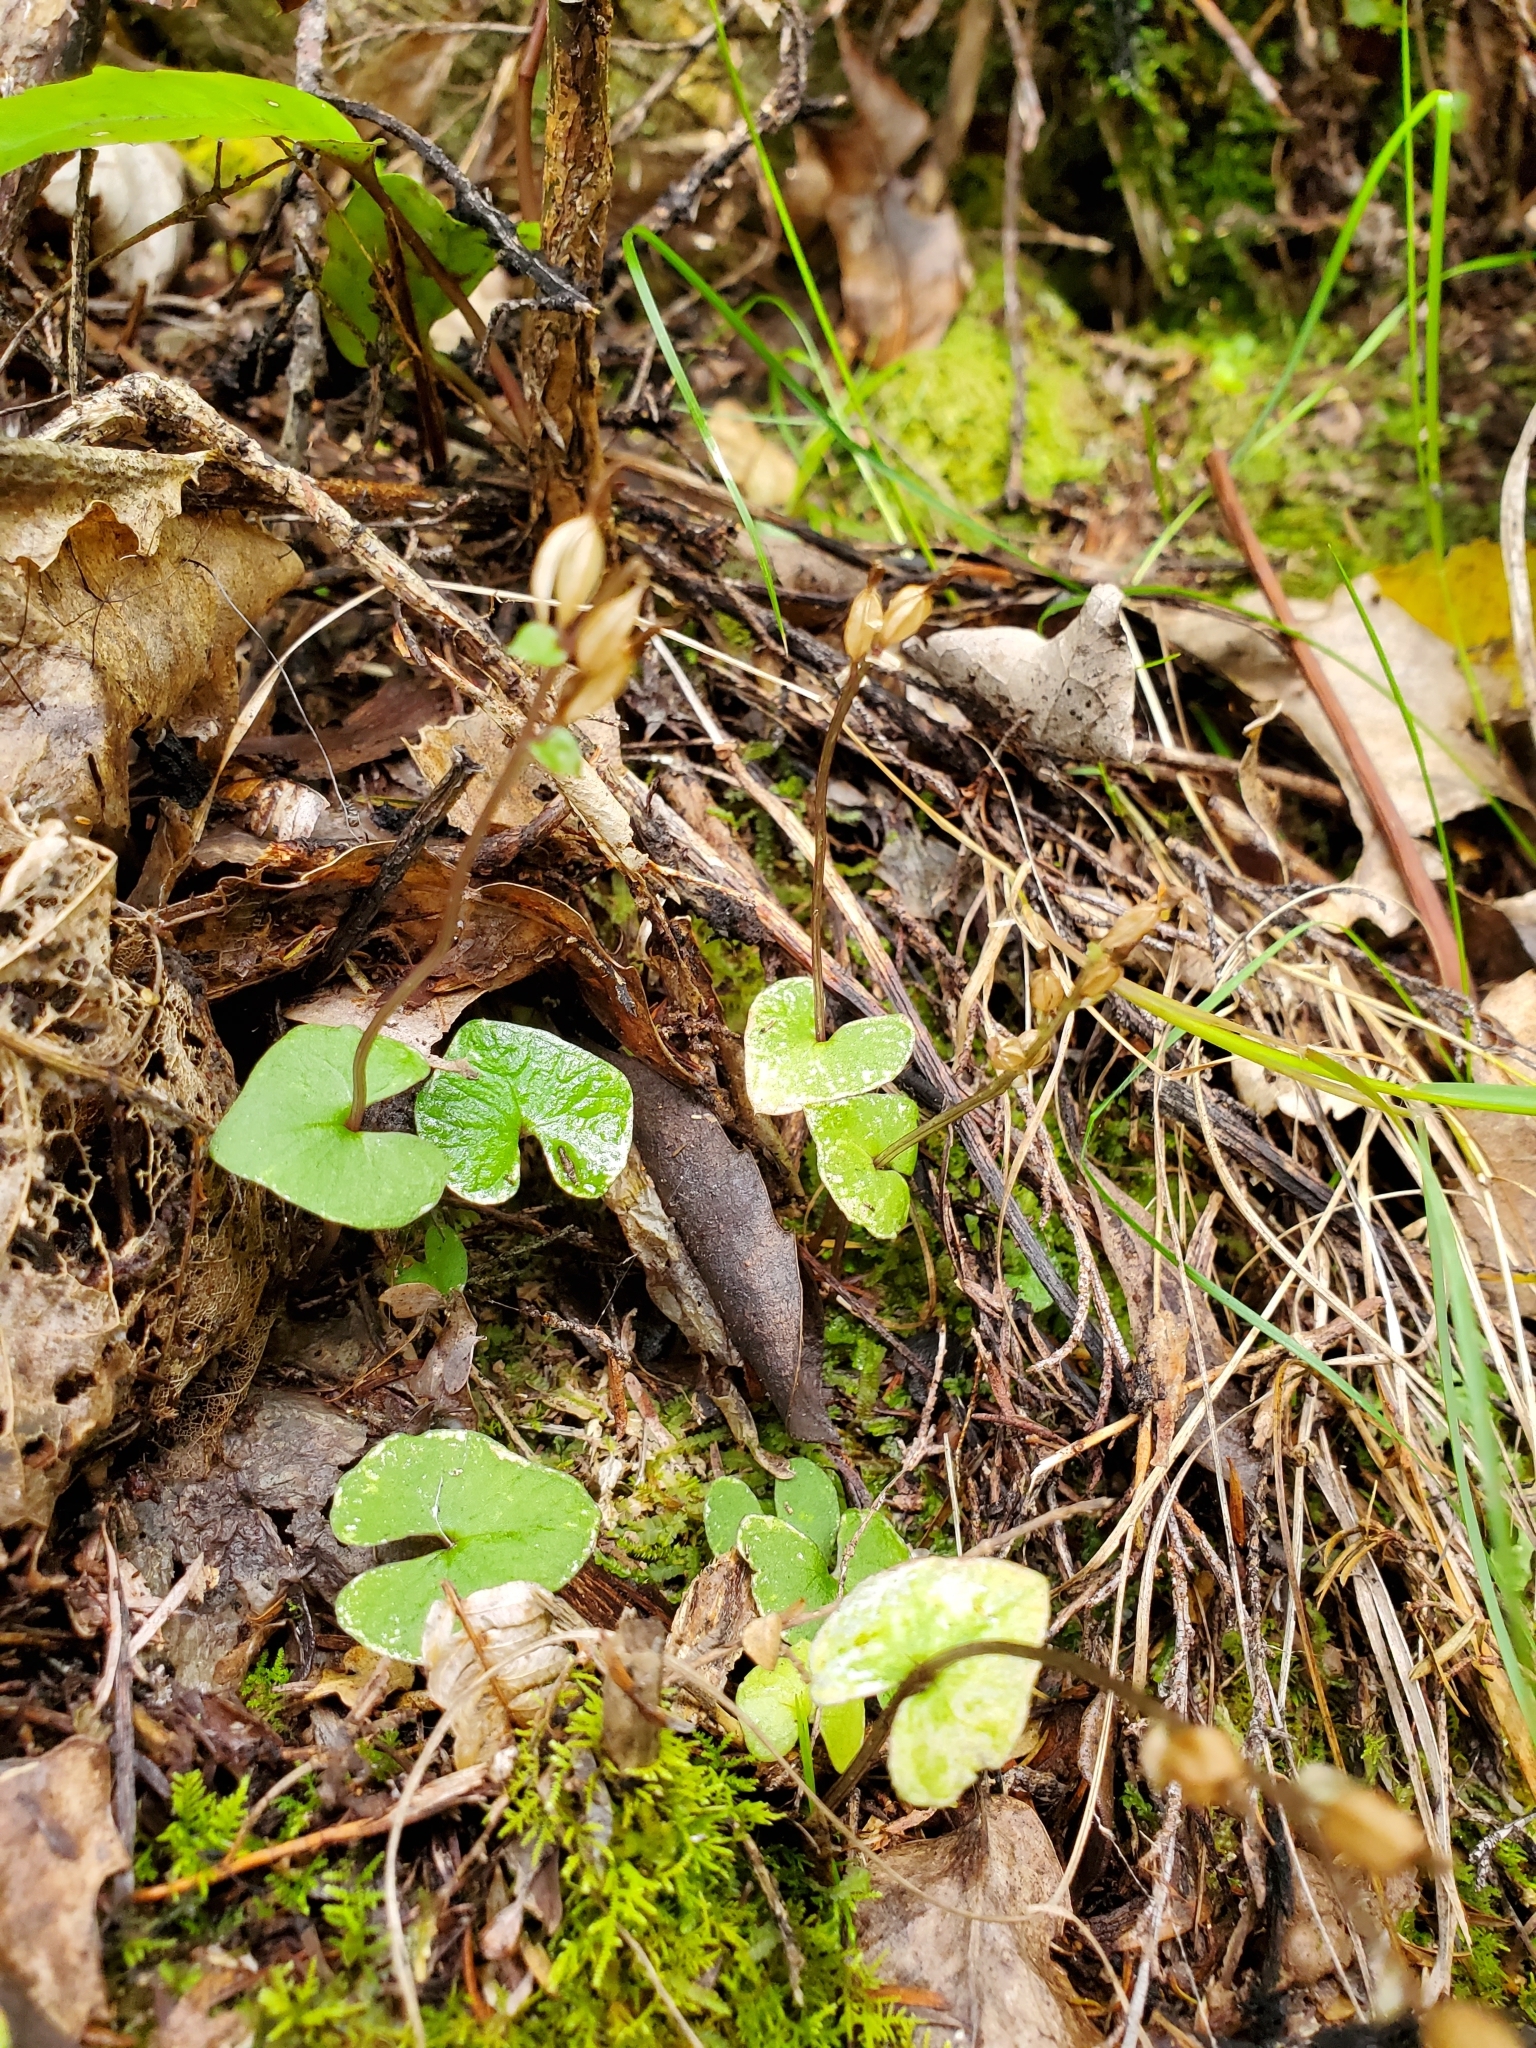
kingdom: Plantae
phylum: Tracheophyta
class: Liliopsida
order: Asparagales
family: Orchidaceae
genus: Acianthus
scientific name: Acianthus sinclairii
